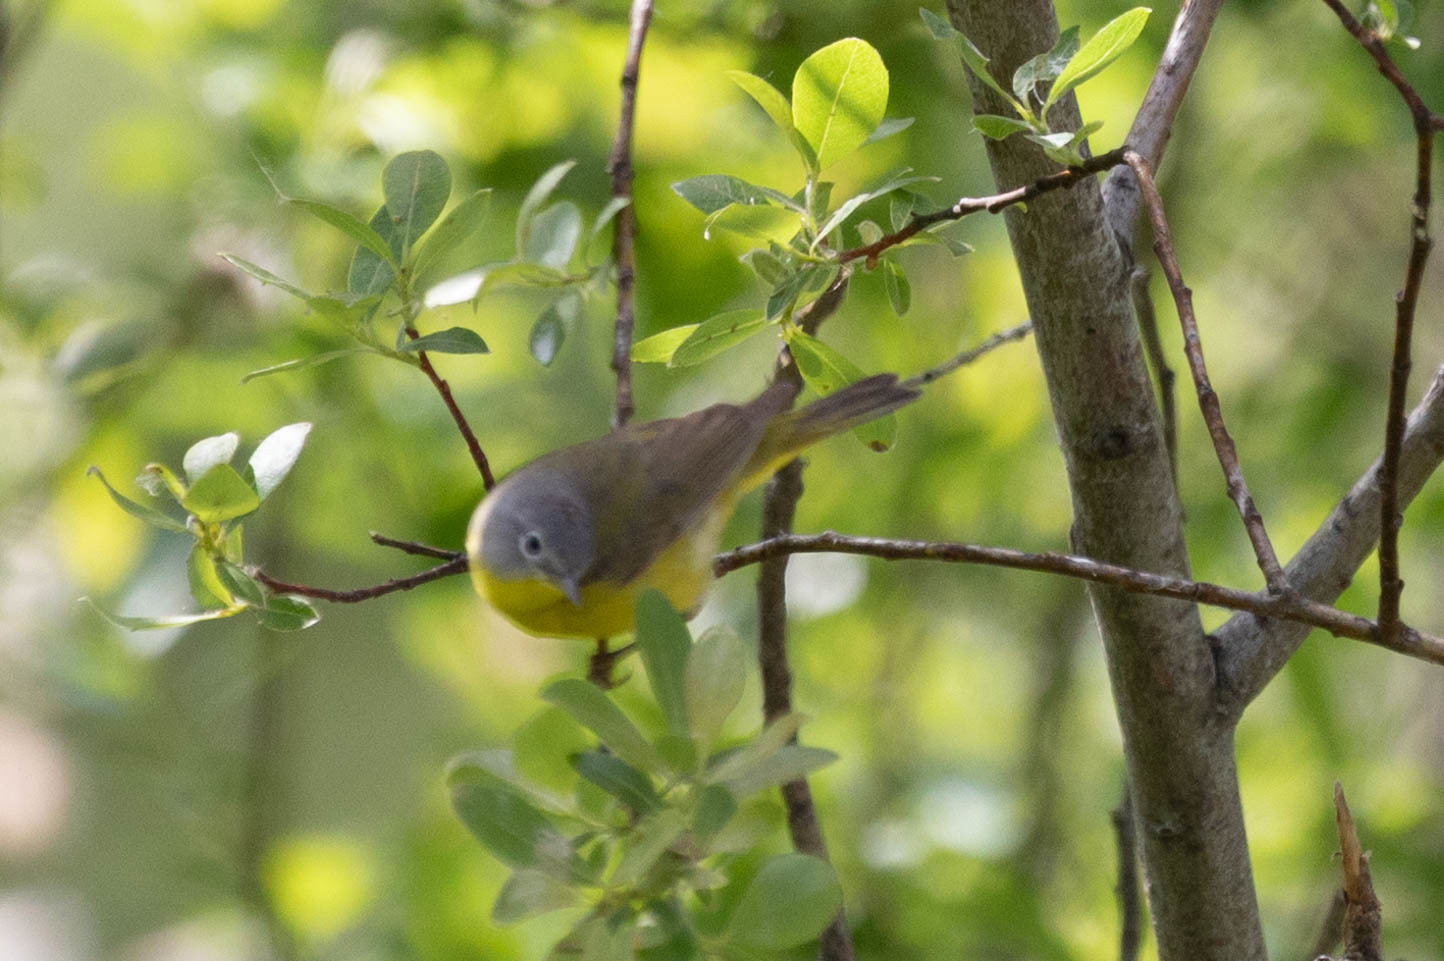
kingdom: Animalia
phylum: Chordata
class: Aves
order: Passeriformes
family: Parulidae
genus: Leiothlypis
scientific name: Leiothlypis ruficapilla
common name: Nashville warbler
